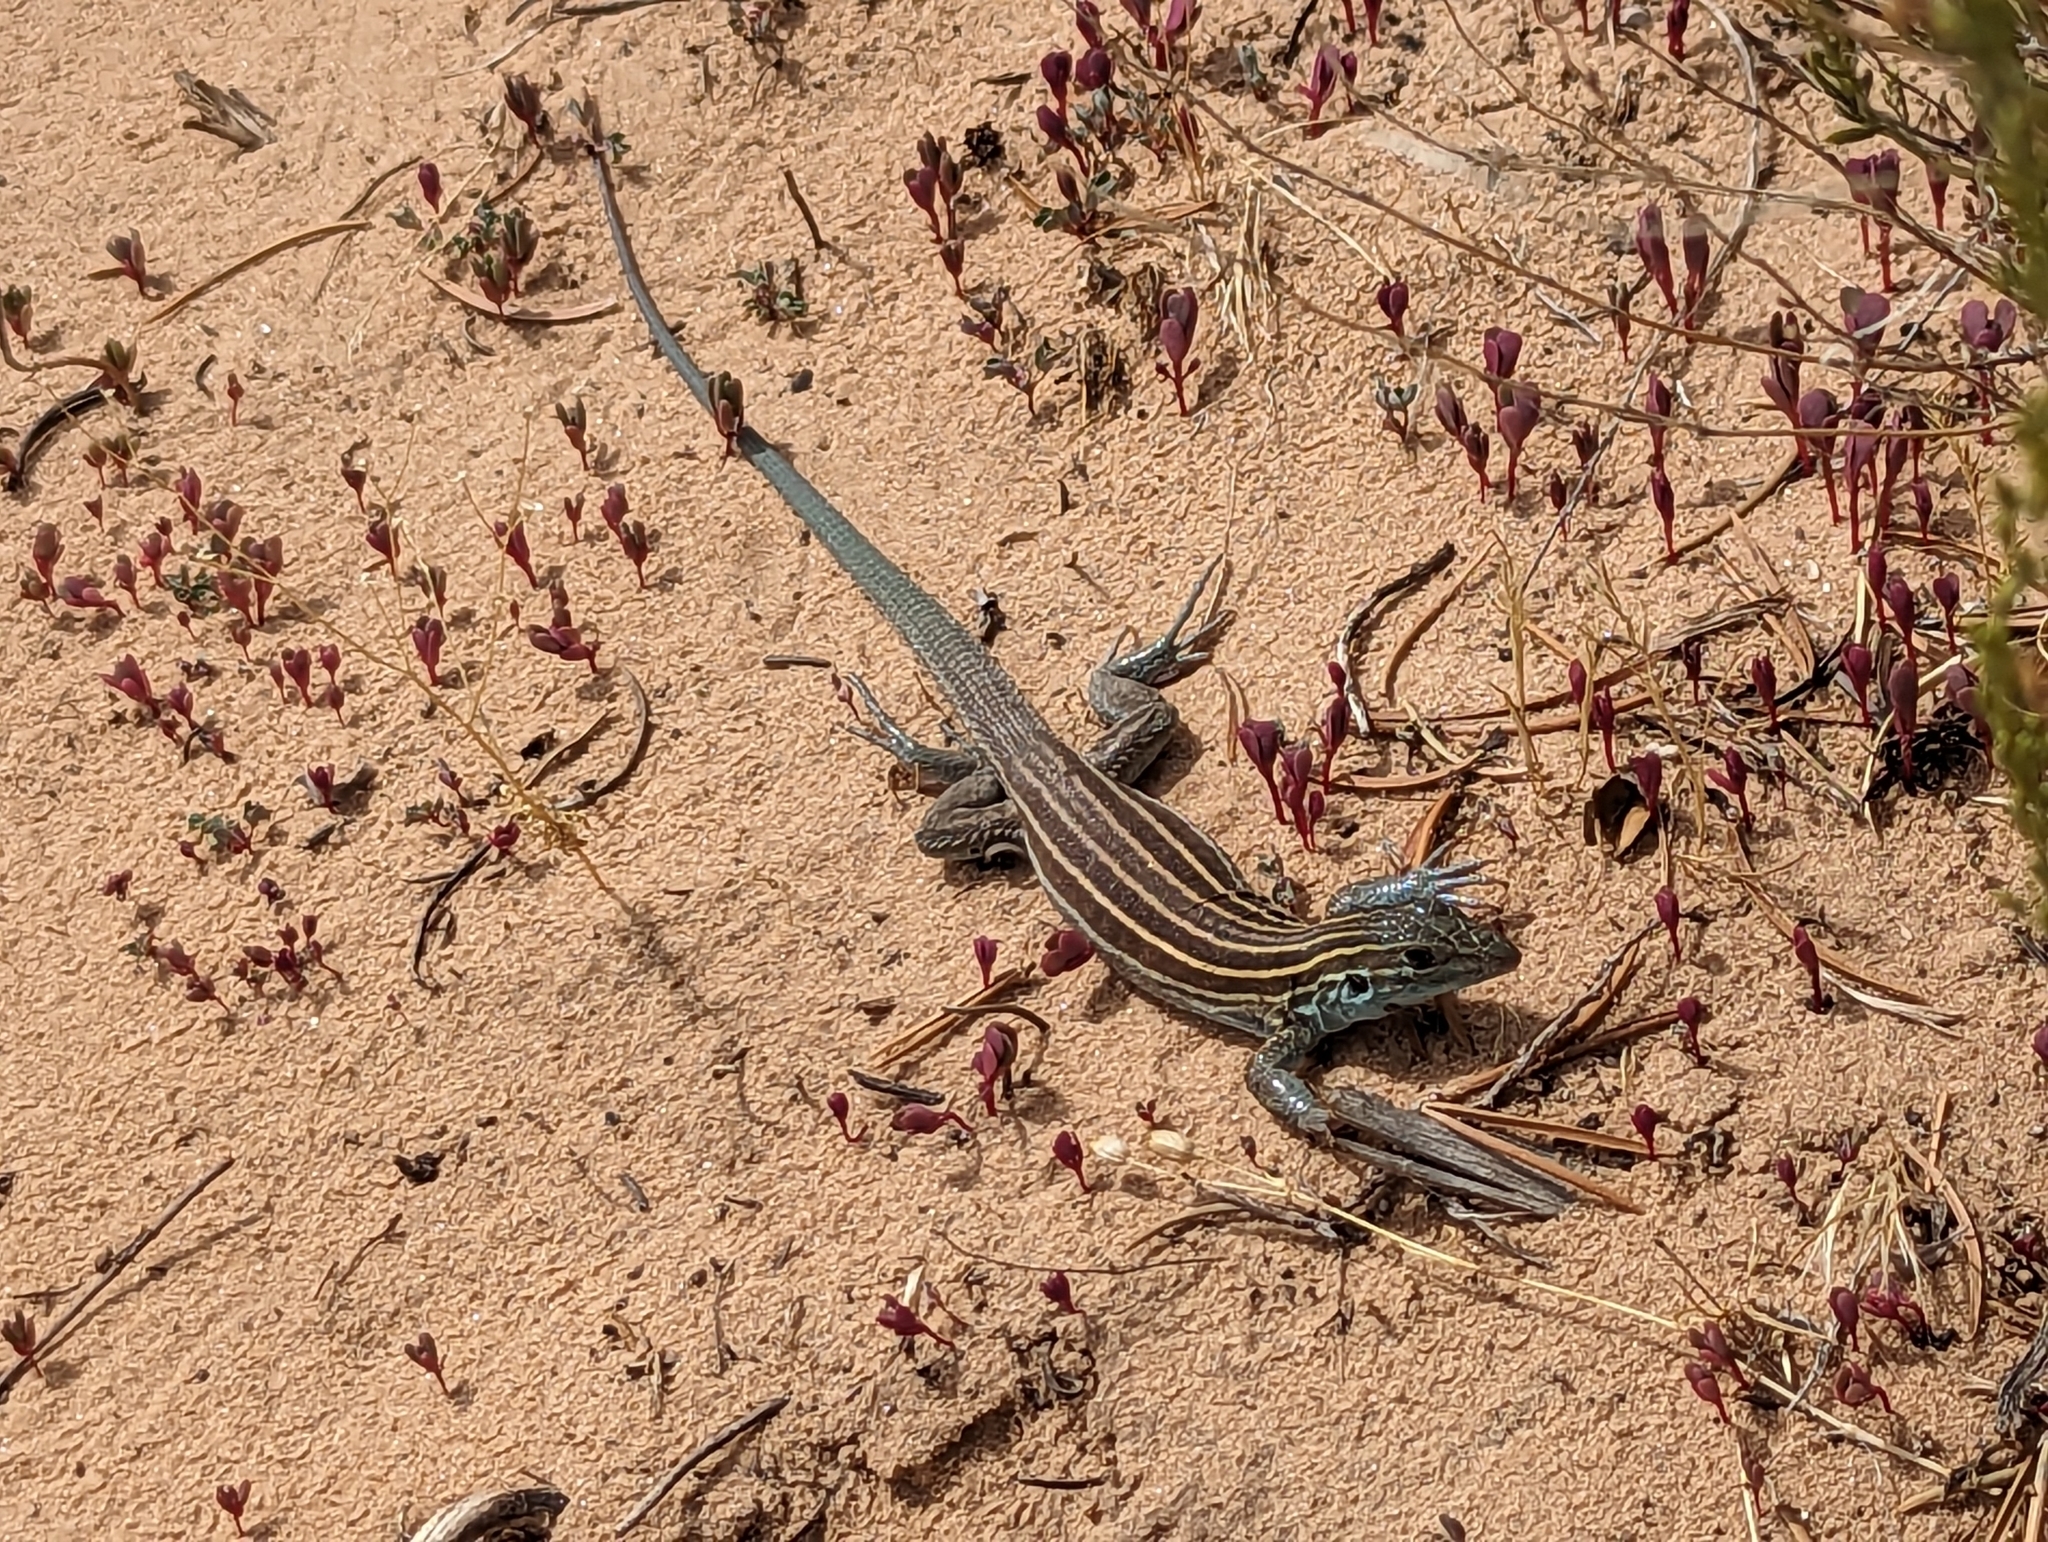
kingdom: Animalia
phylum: Chordata
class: Squamata
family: Teiidae
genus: Aspidoscelis
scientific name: Aspidoscelis velox
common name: Plateau striped whiptail
